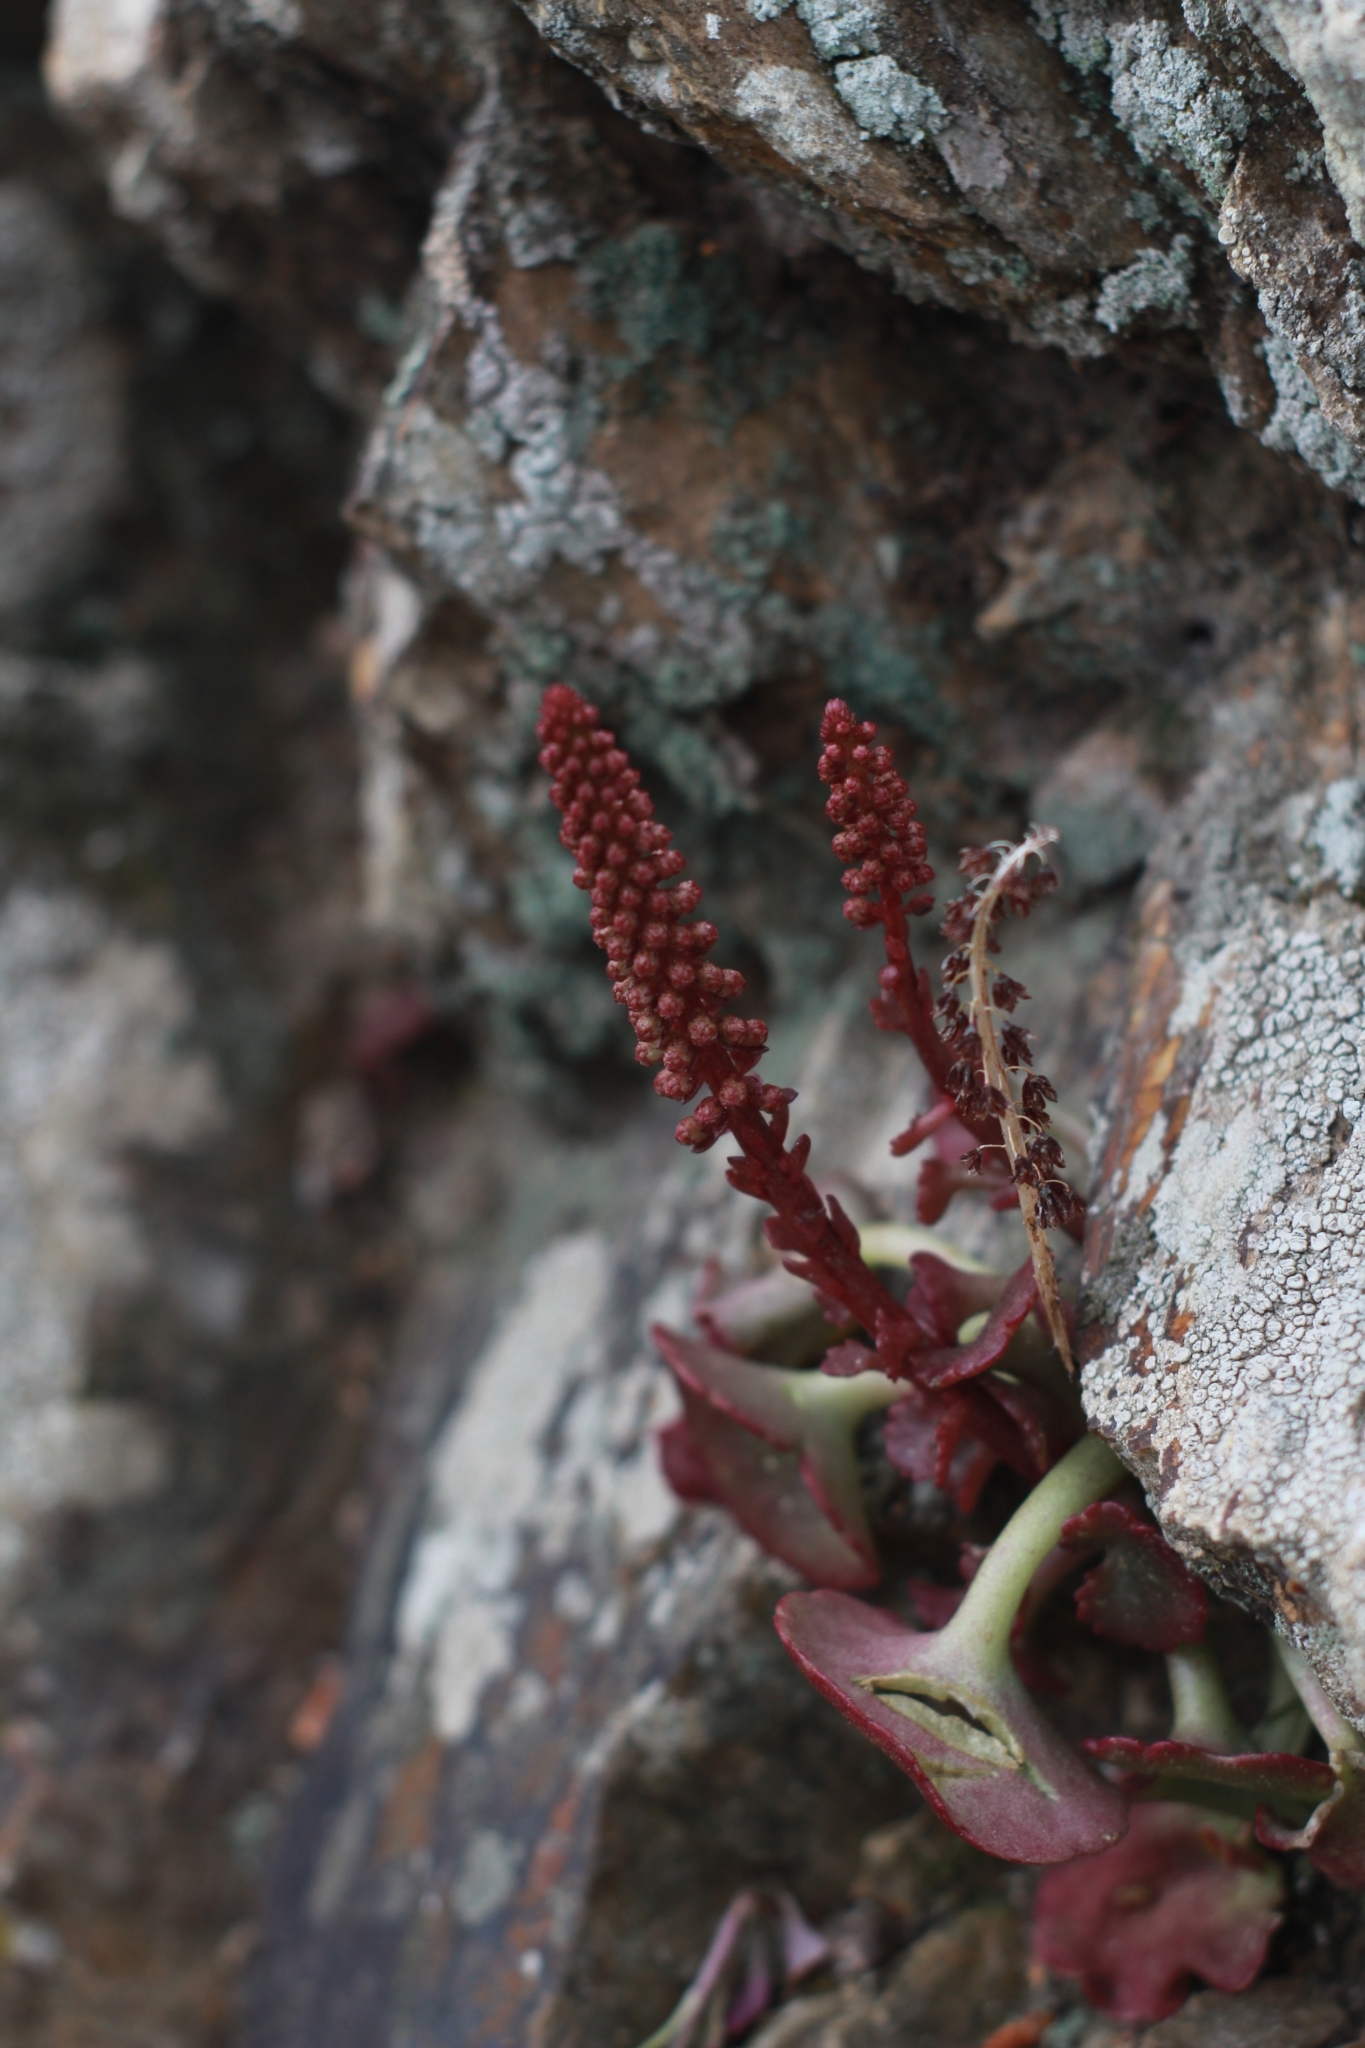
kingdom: Plantae
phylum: Tracheophyta
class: Magnoliopsida
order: Saxifragales
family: Crassulaceae
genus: Umbilicus
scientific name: Umbilicus rupestris
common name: Navelwort
